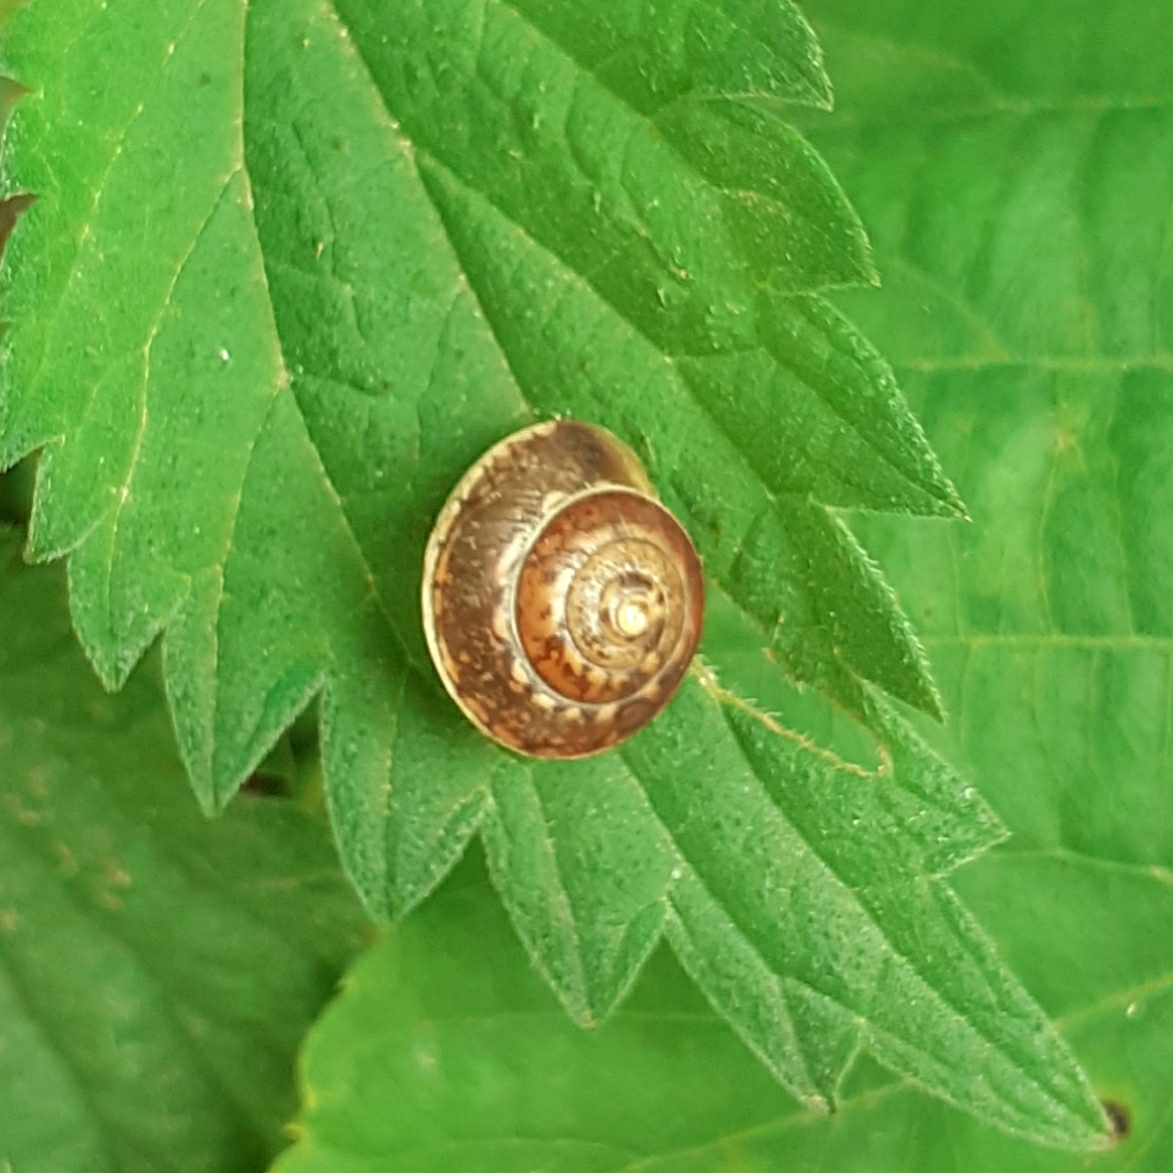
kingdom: Animalia
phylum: Mollusca
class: Gastropoda
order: Stylommatophora
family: Hygromiidae
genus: Hygromia
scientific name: Hygromia cinctella
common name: Girdled snail
